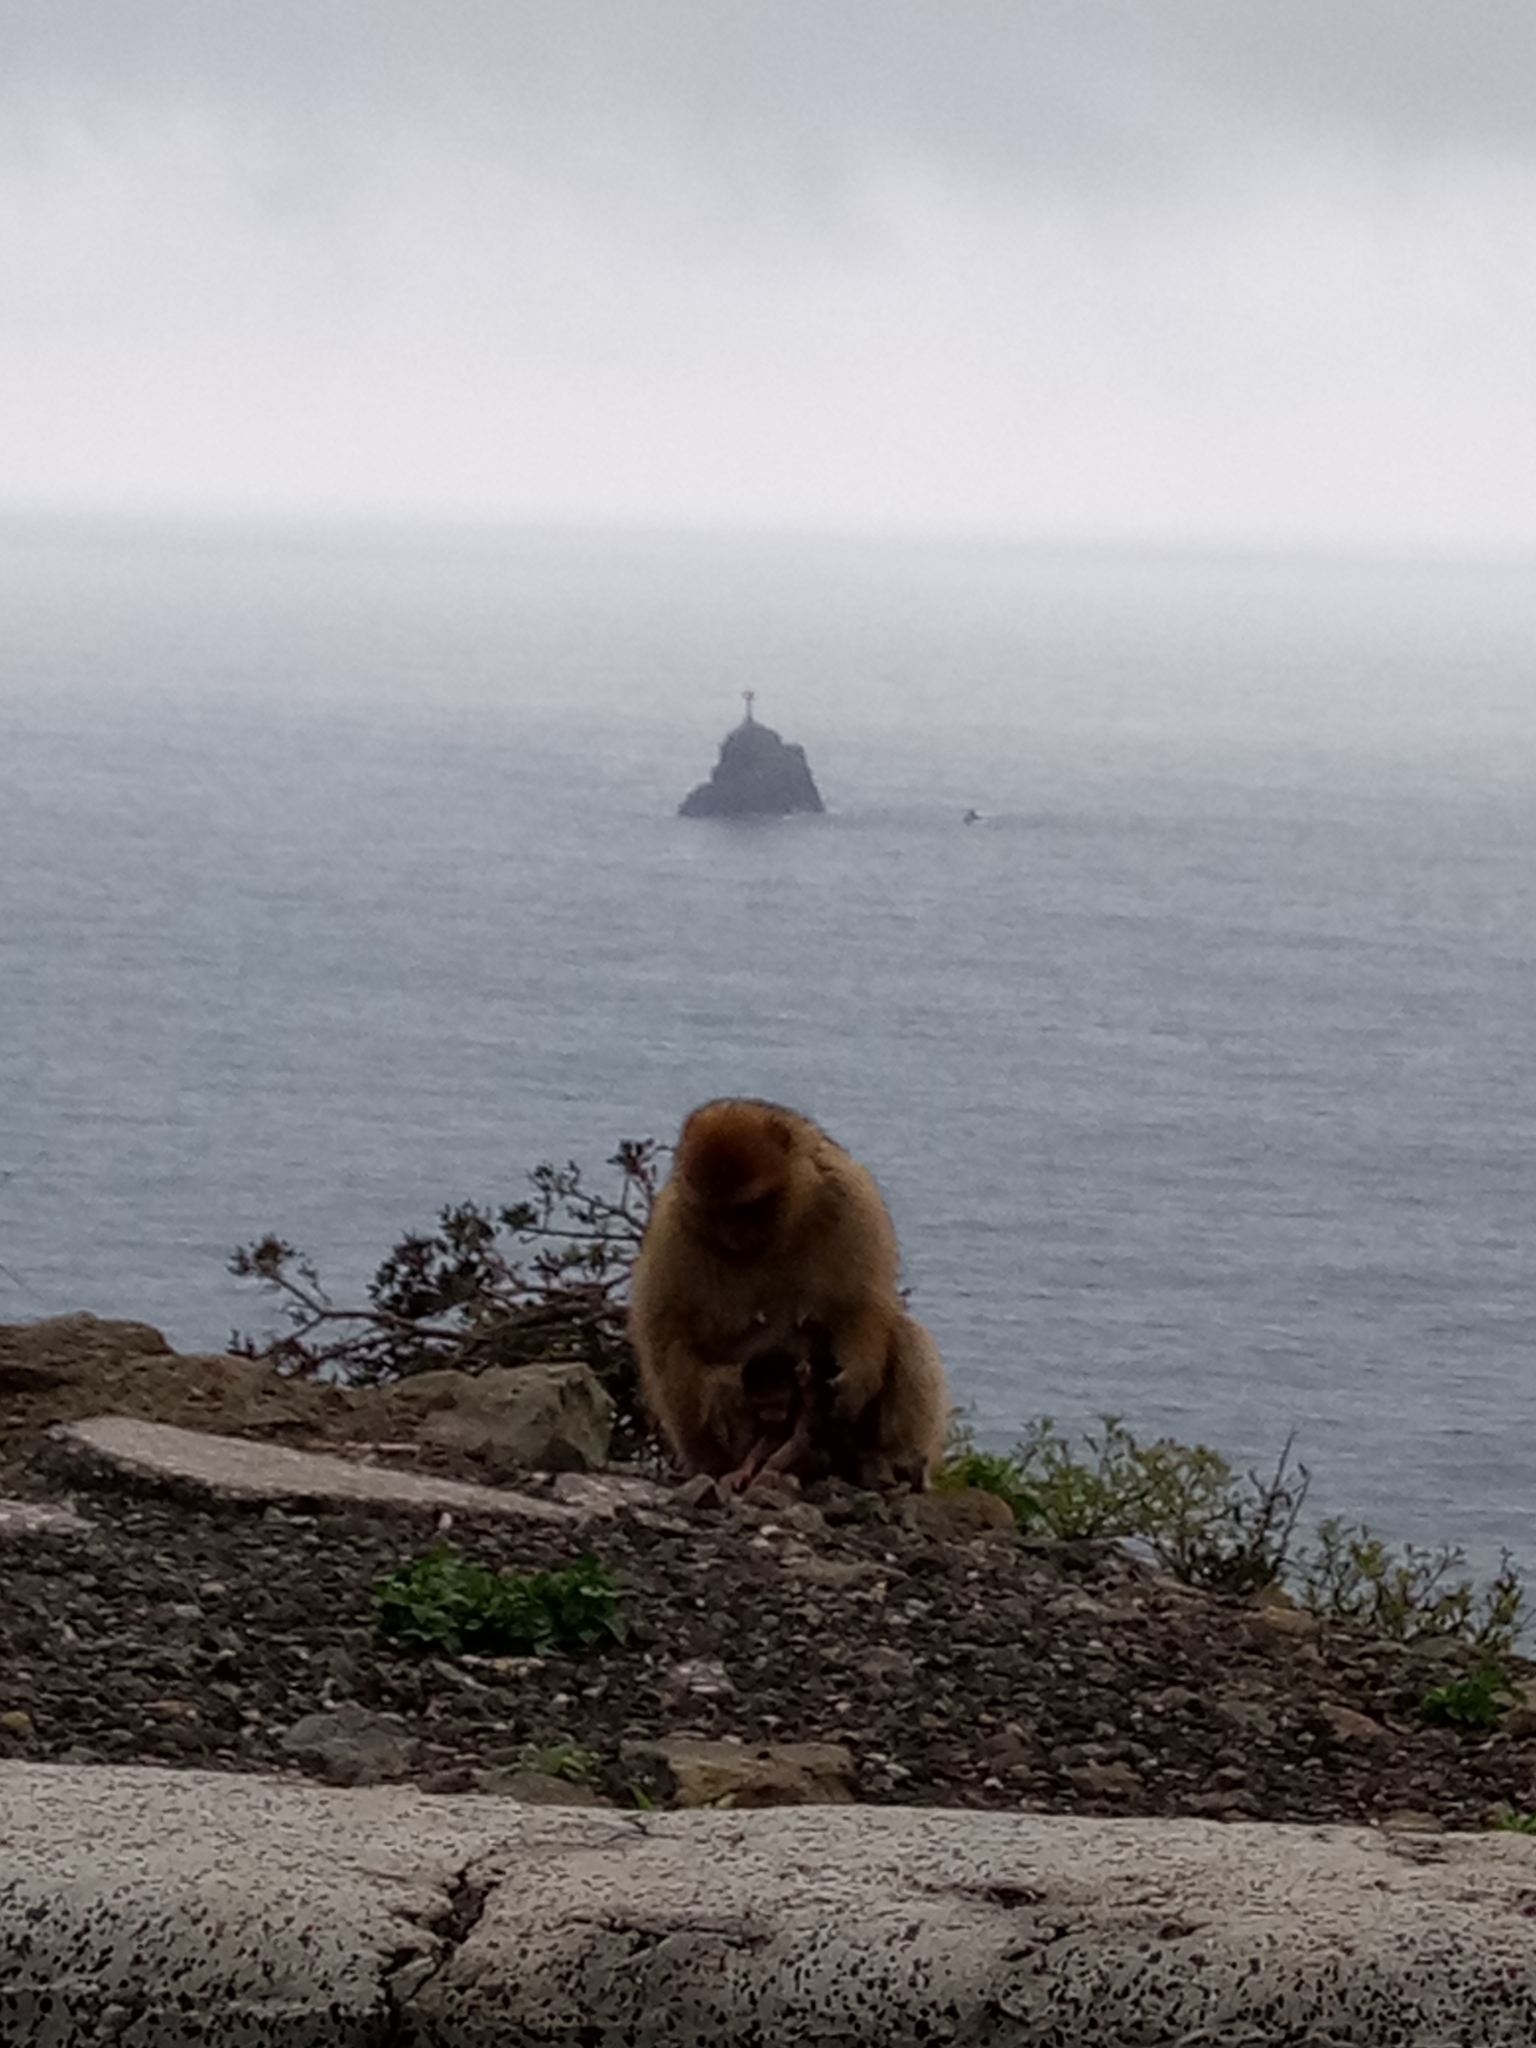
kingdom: Animalia
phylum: Chordata
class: Mammalia
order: Primates
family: Cercopithecidae
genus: Macaca
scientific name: Macaca sylvanus
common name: Barbary macaque
